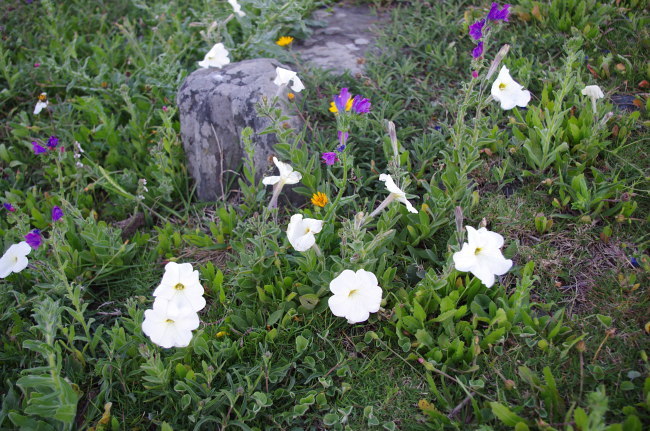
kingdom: Plantae
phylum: Tracheophyta
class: Magnoliopsida
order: Solanales
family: Solanaceae
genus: Petunia
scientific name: Petunia axillaris
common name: Large white petunia
